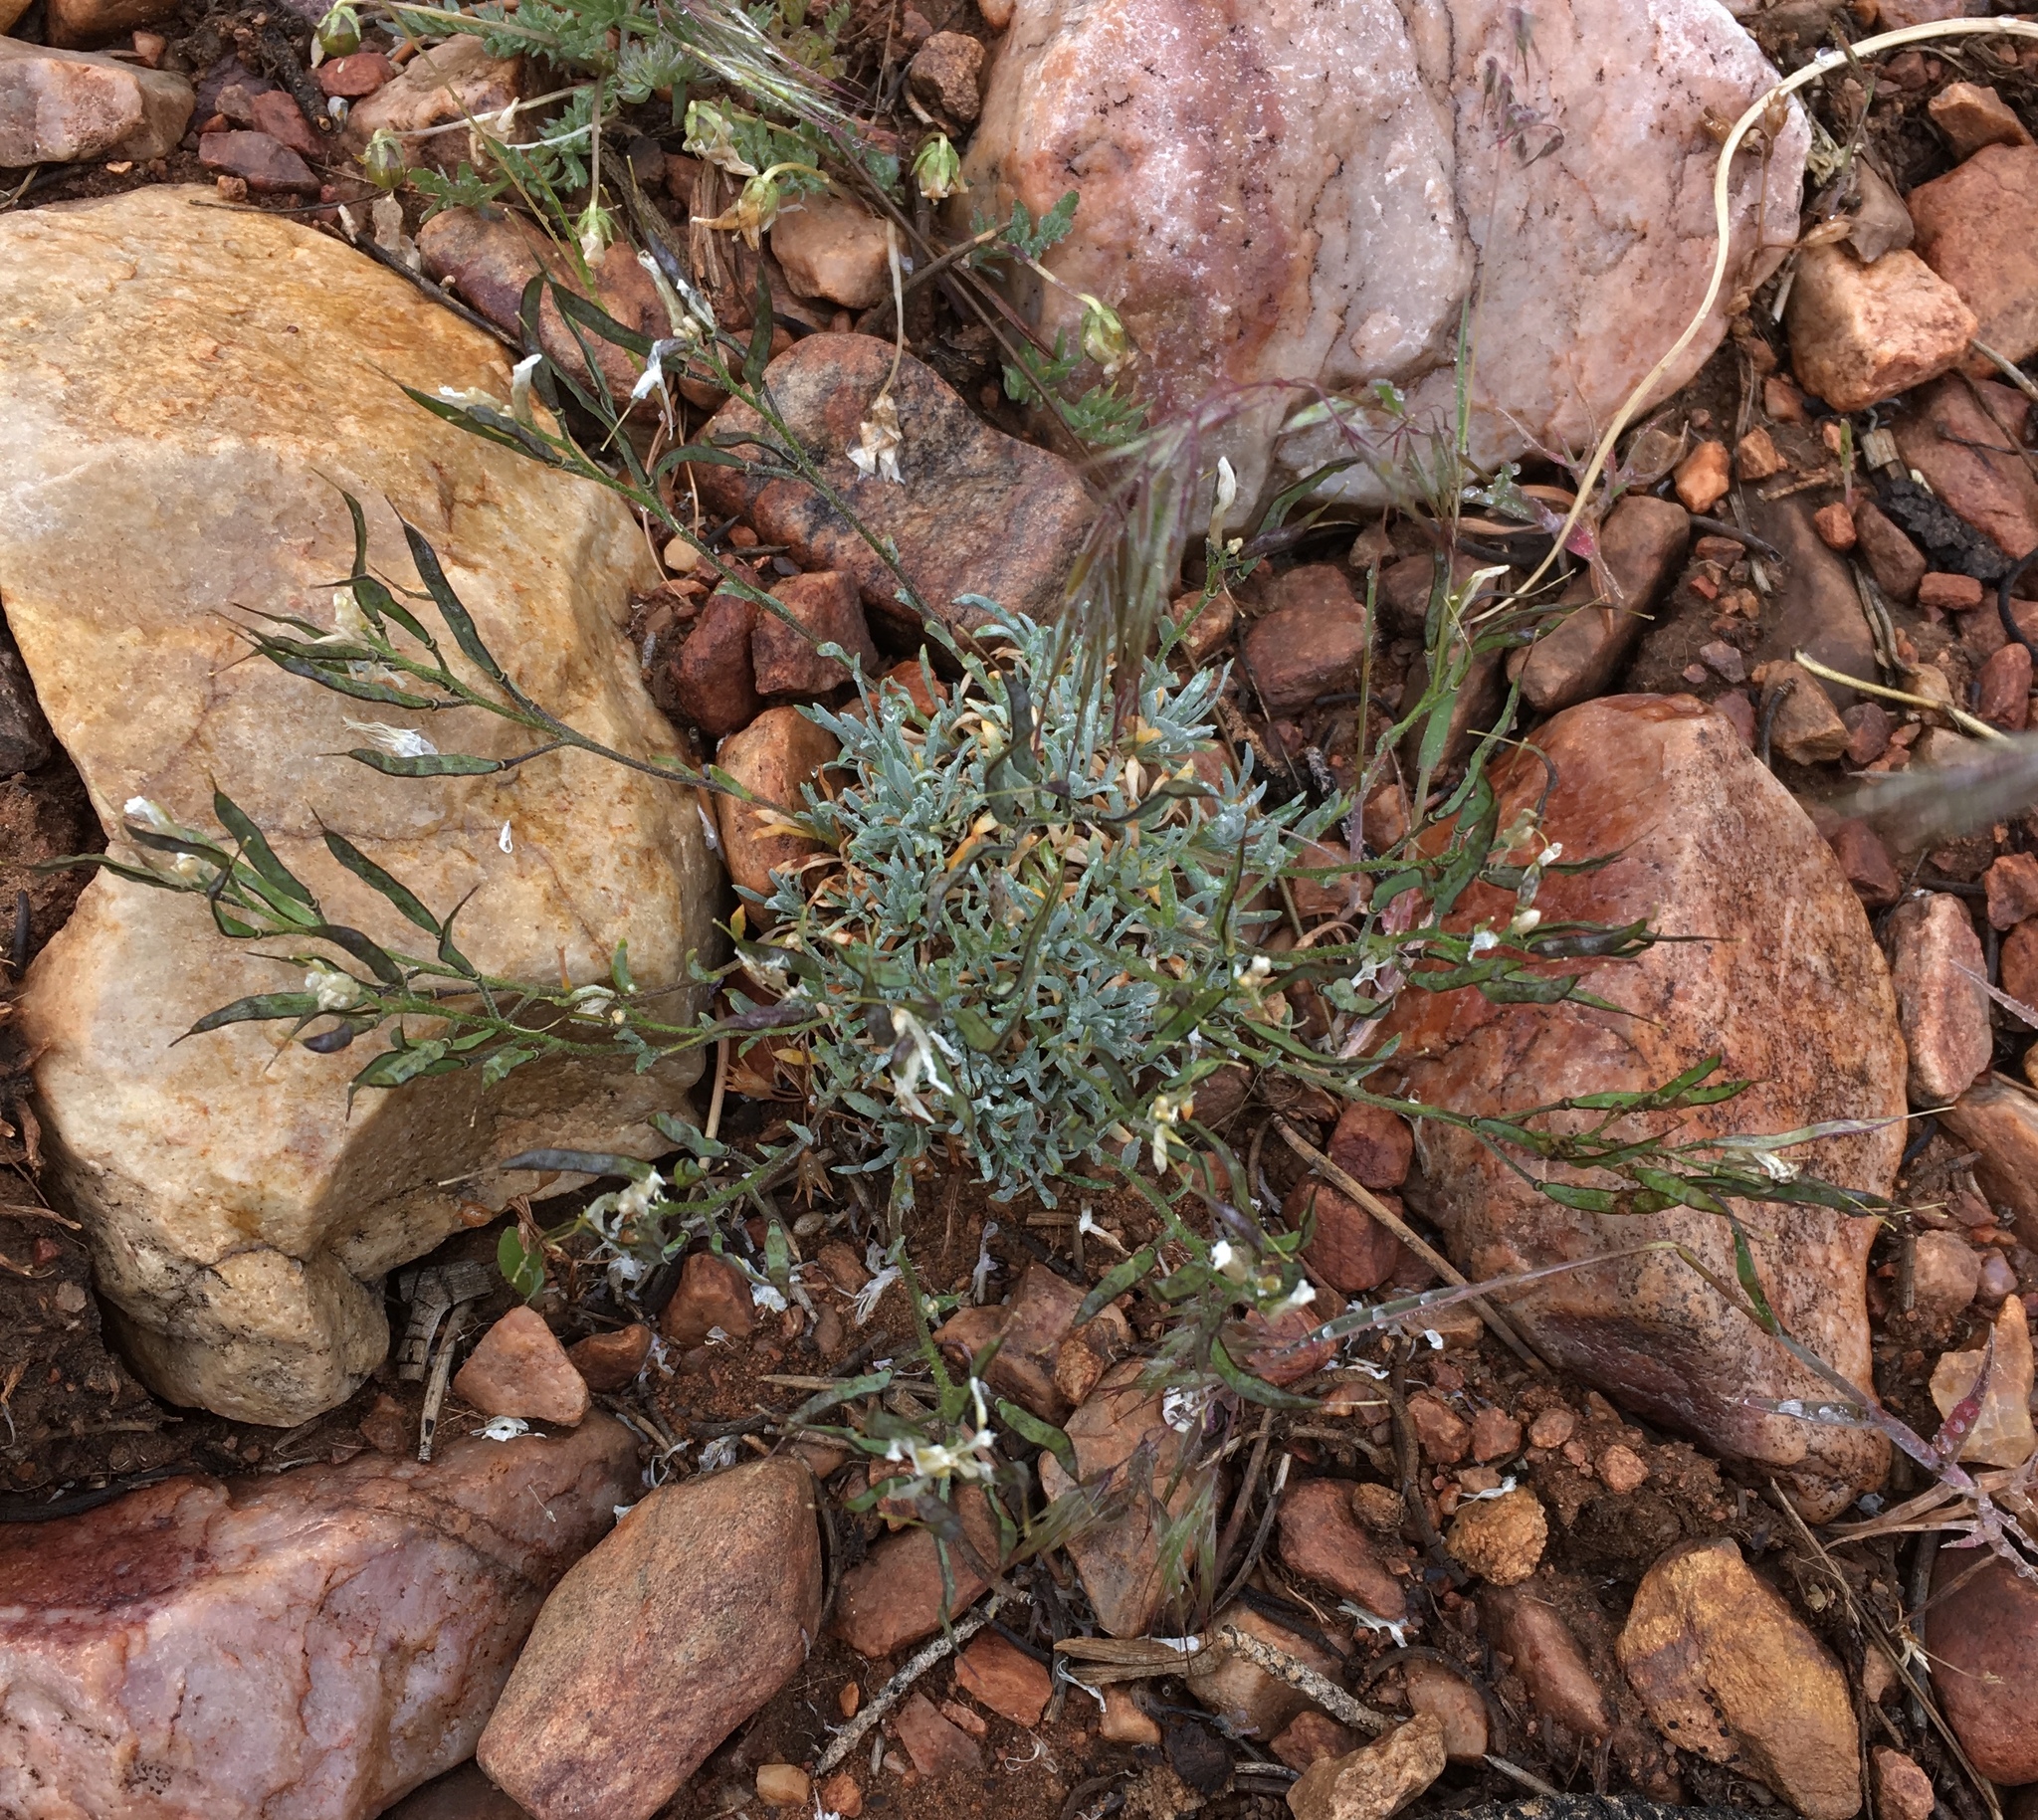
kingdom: Plantae
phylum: Tracheophyta
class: Magnoliopsida
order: Brassicales
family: Brassicaceae
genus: Boechera
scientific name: Boechera parishii
